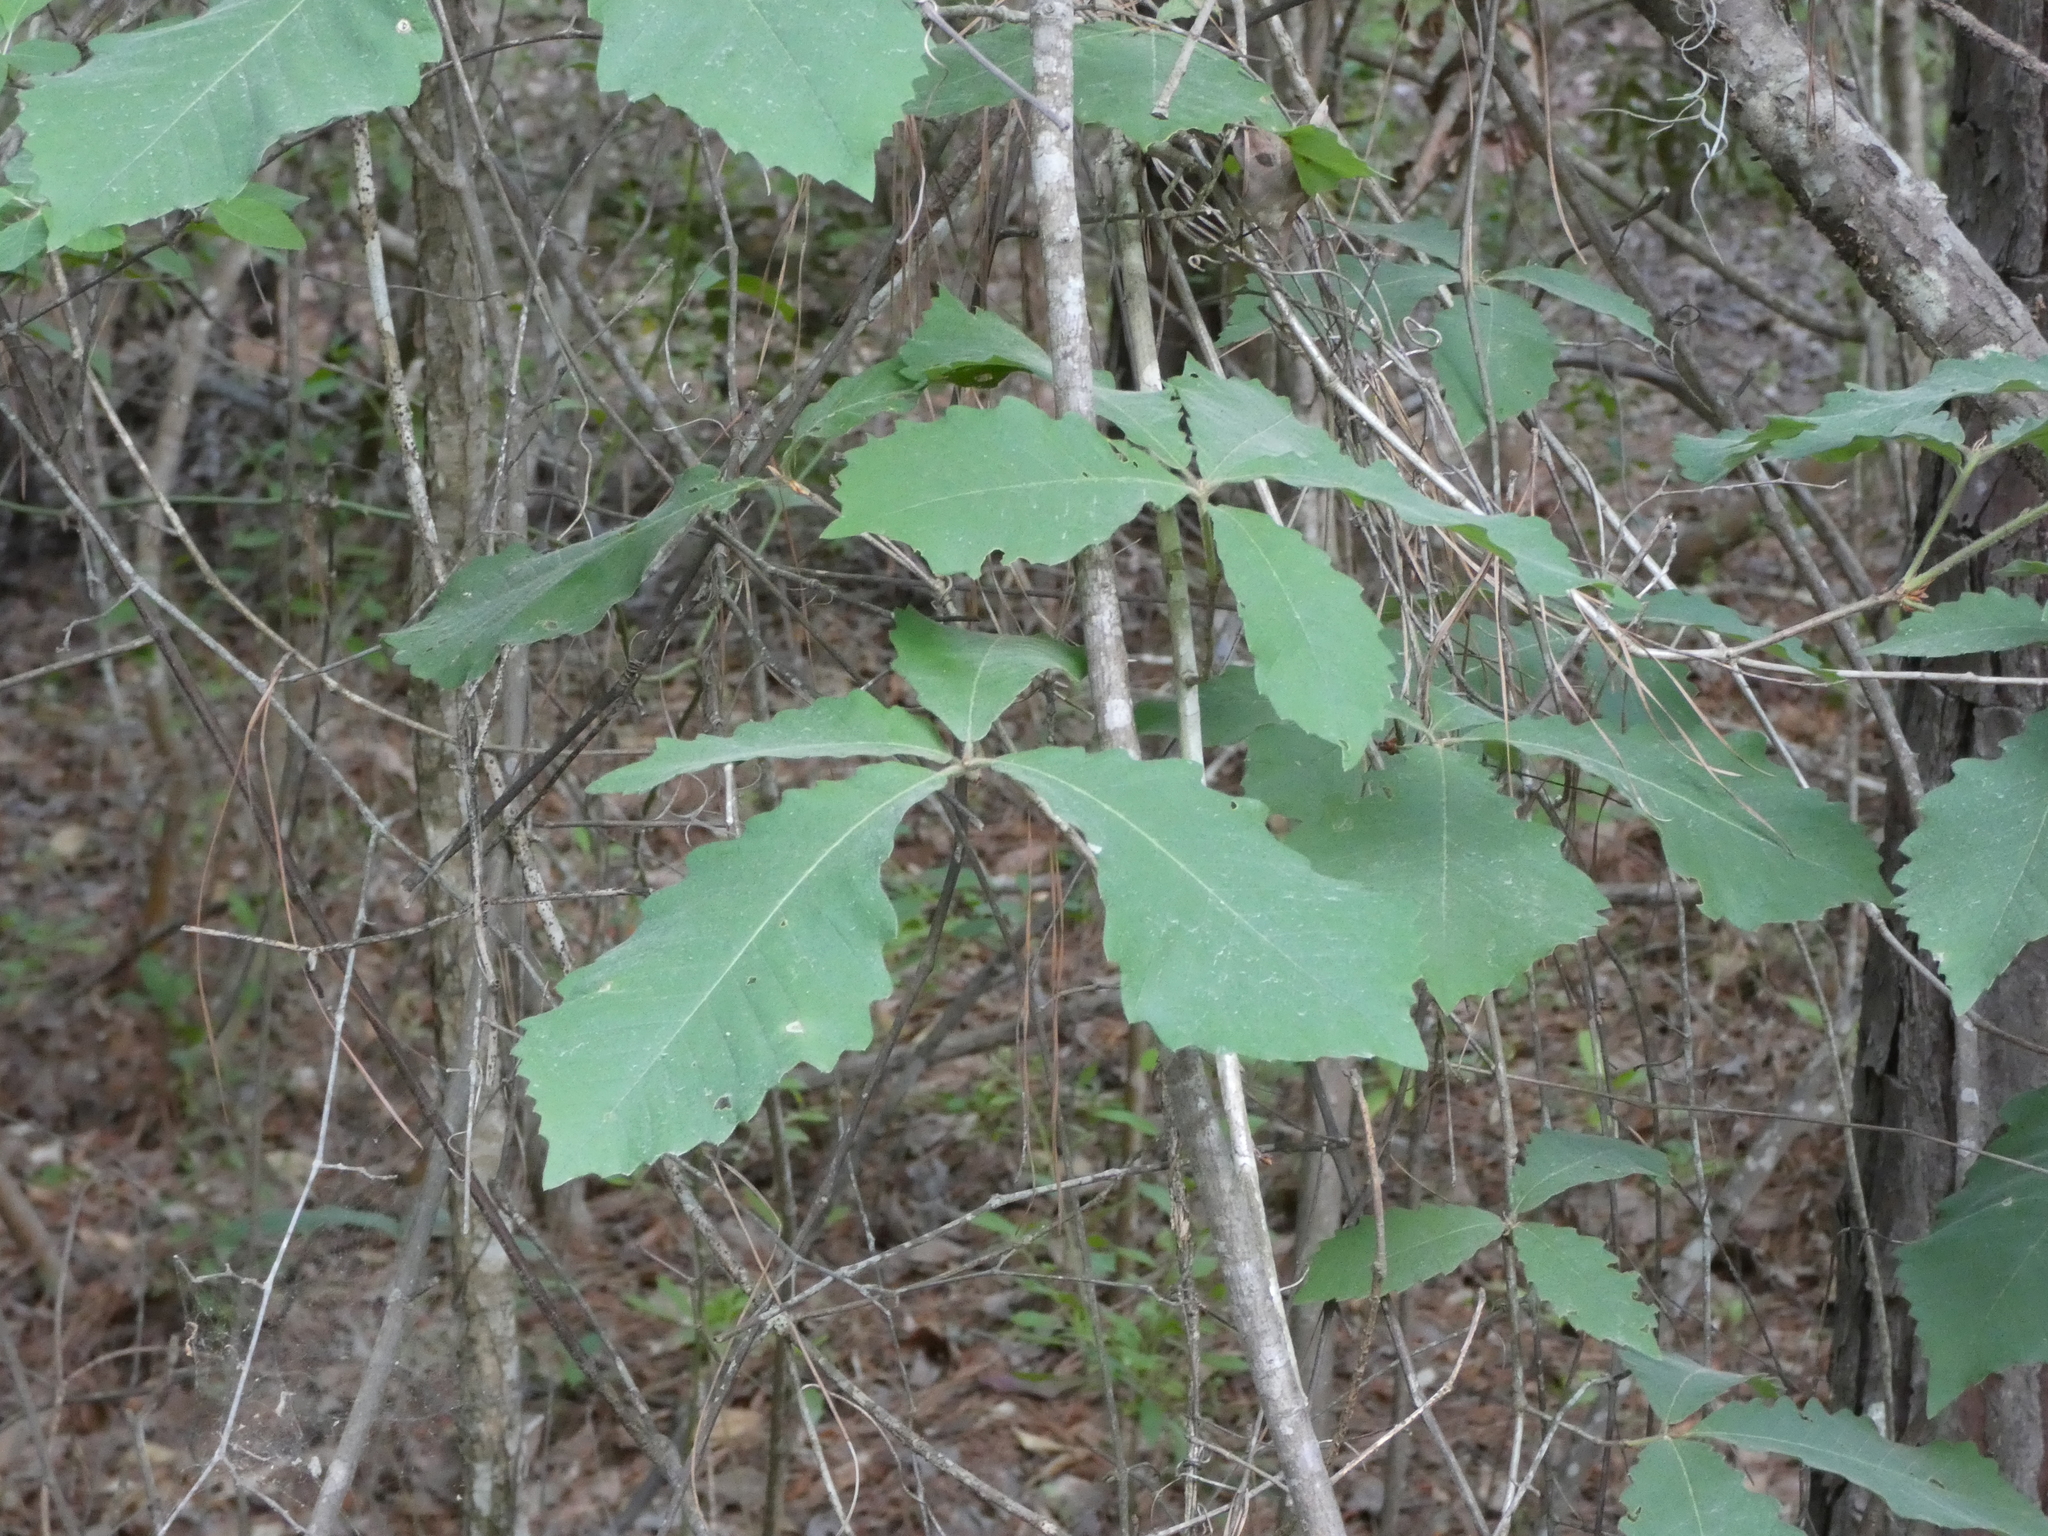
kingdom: Plantae
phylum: Tracheophyta
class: Magnoliopsida
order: Fagales
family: Fagaceae
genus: Quercus
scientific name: Quercus michauxii
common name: Swamp chestnut oak
